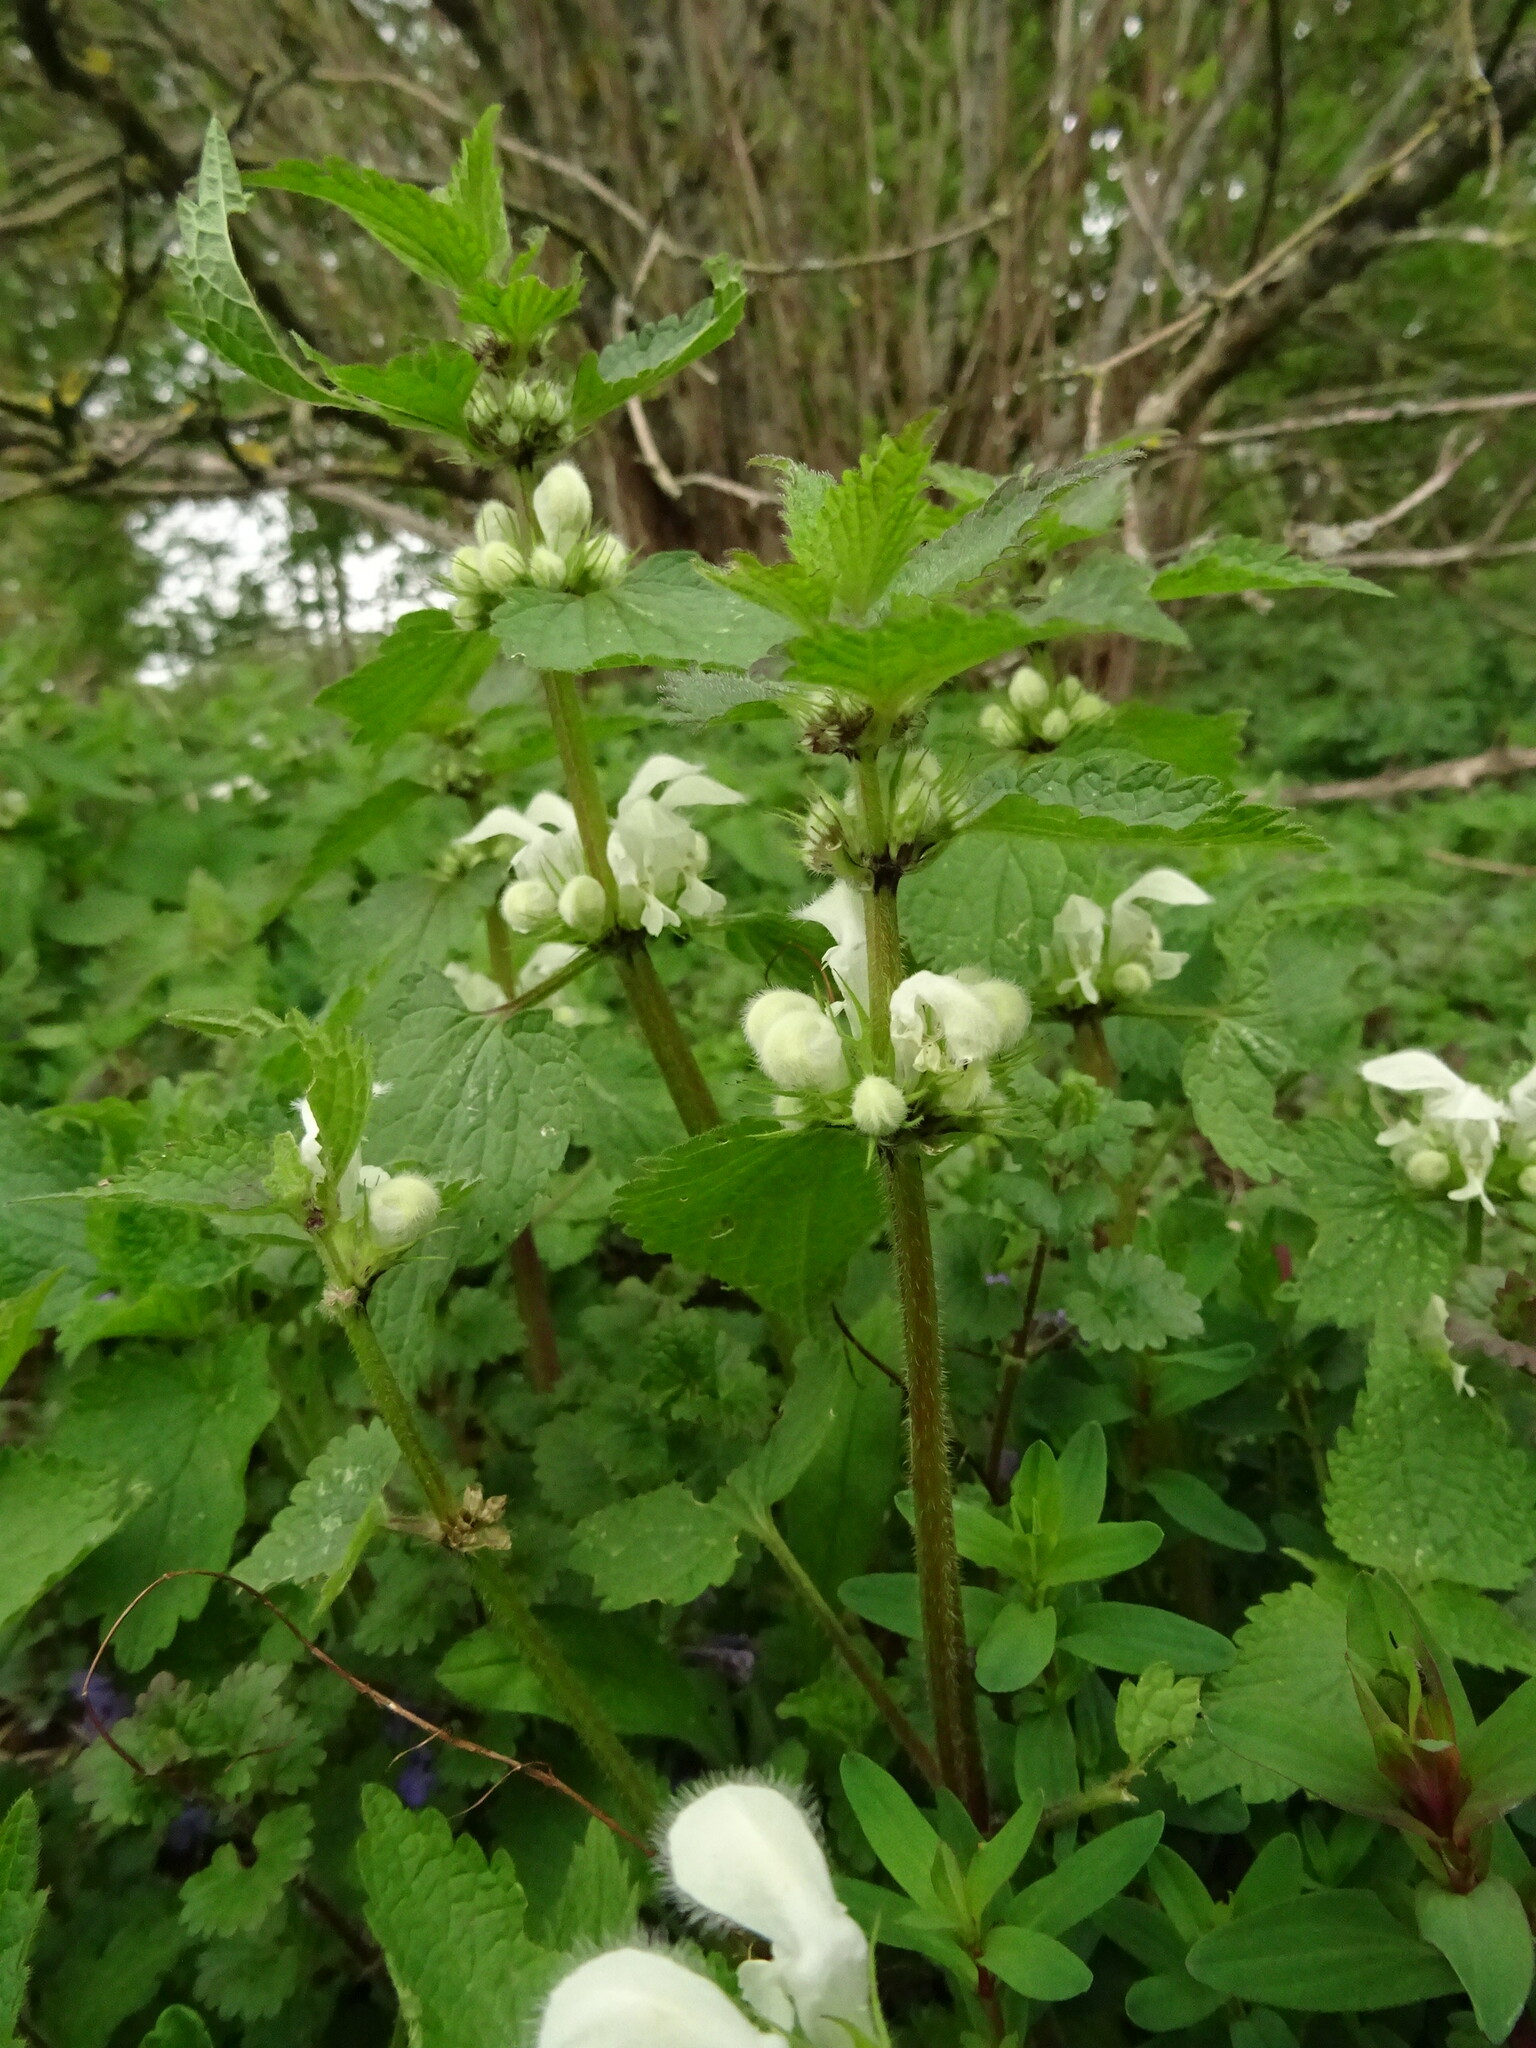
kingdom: Plantae
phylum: Tracheophyta
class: Magnoliopsida
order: Lamiales
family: Lamiaceae
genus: Lamium
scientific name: Lamium album
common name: White dead-nettle
